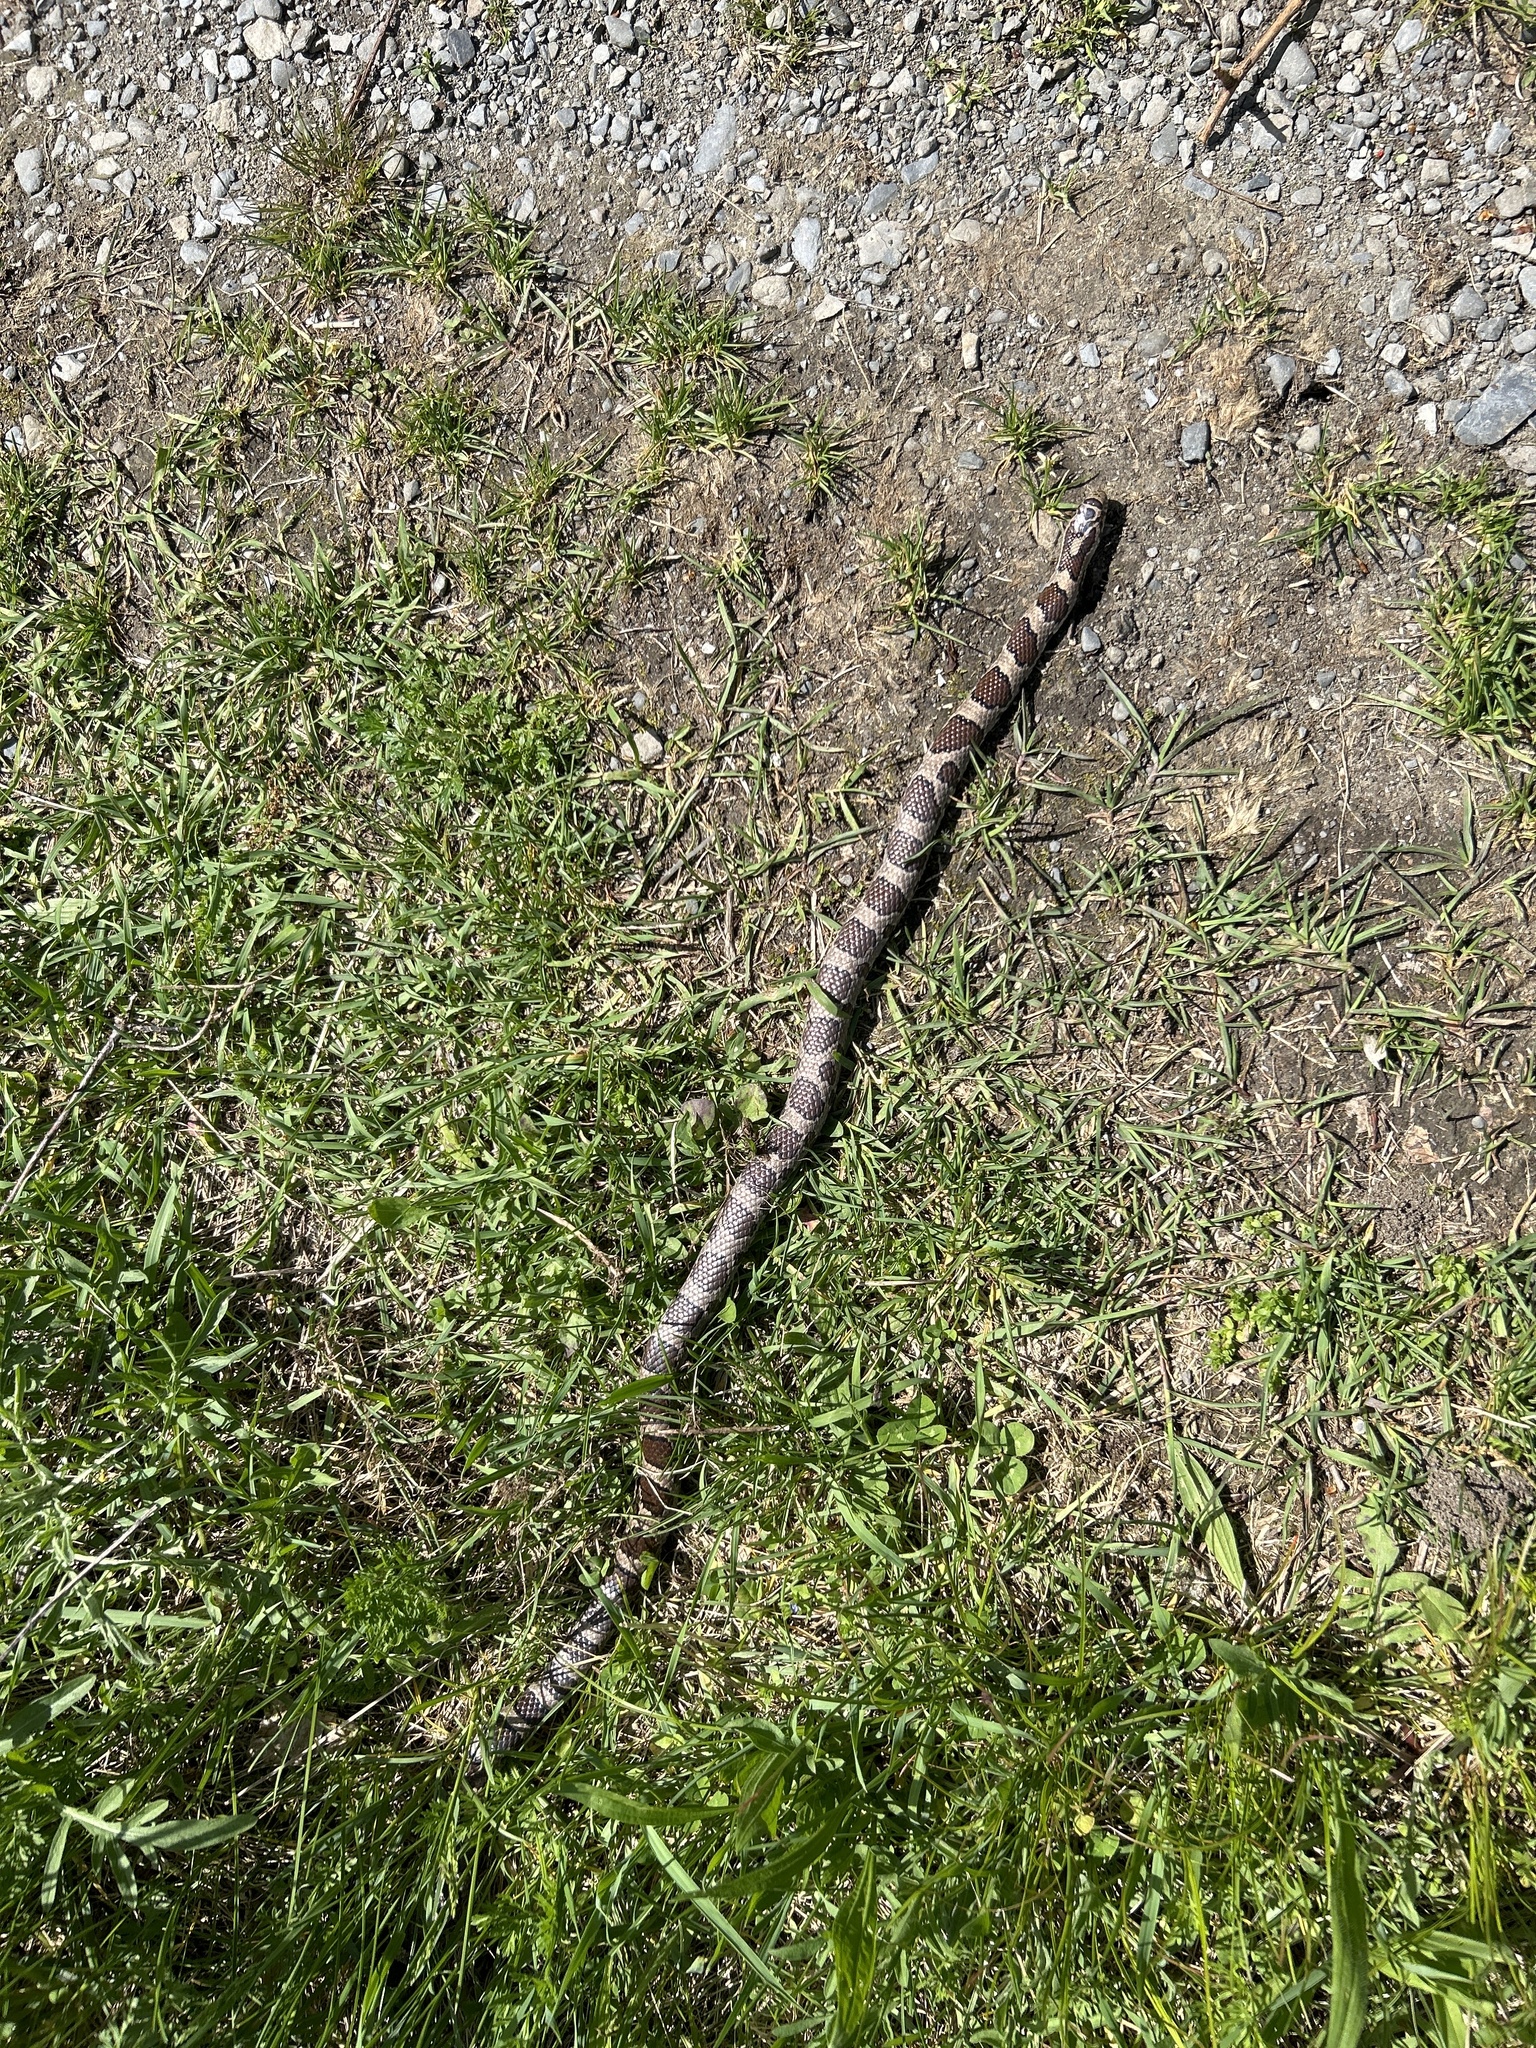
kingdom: Animalia
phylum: Chordata
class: Squamata
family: Colubridae
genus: Lampropeltis
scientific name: Lampropeltis triangulum
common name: Eastern milksnake
